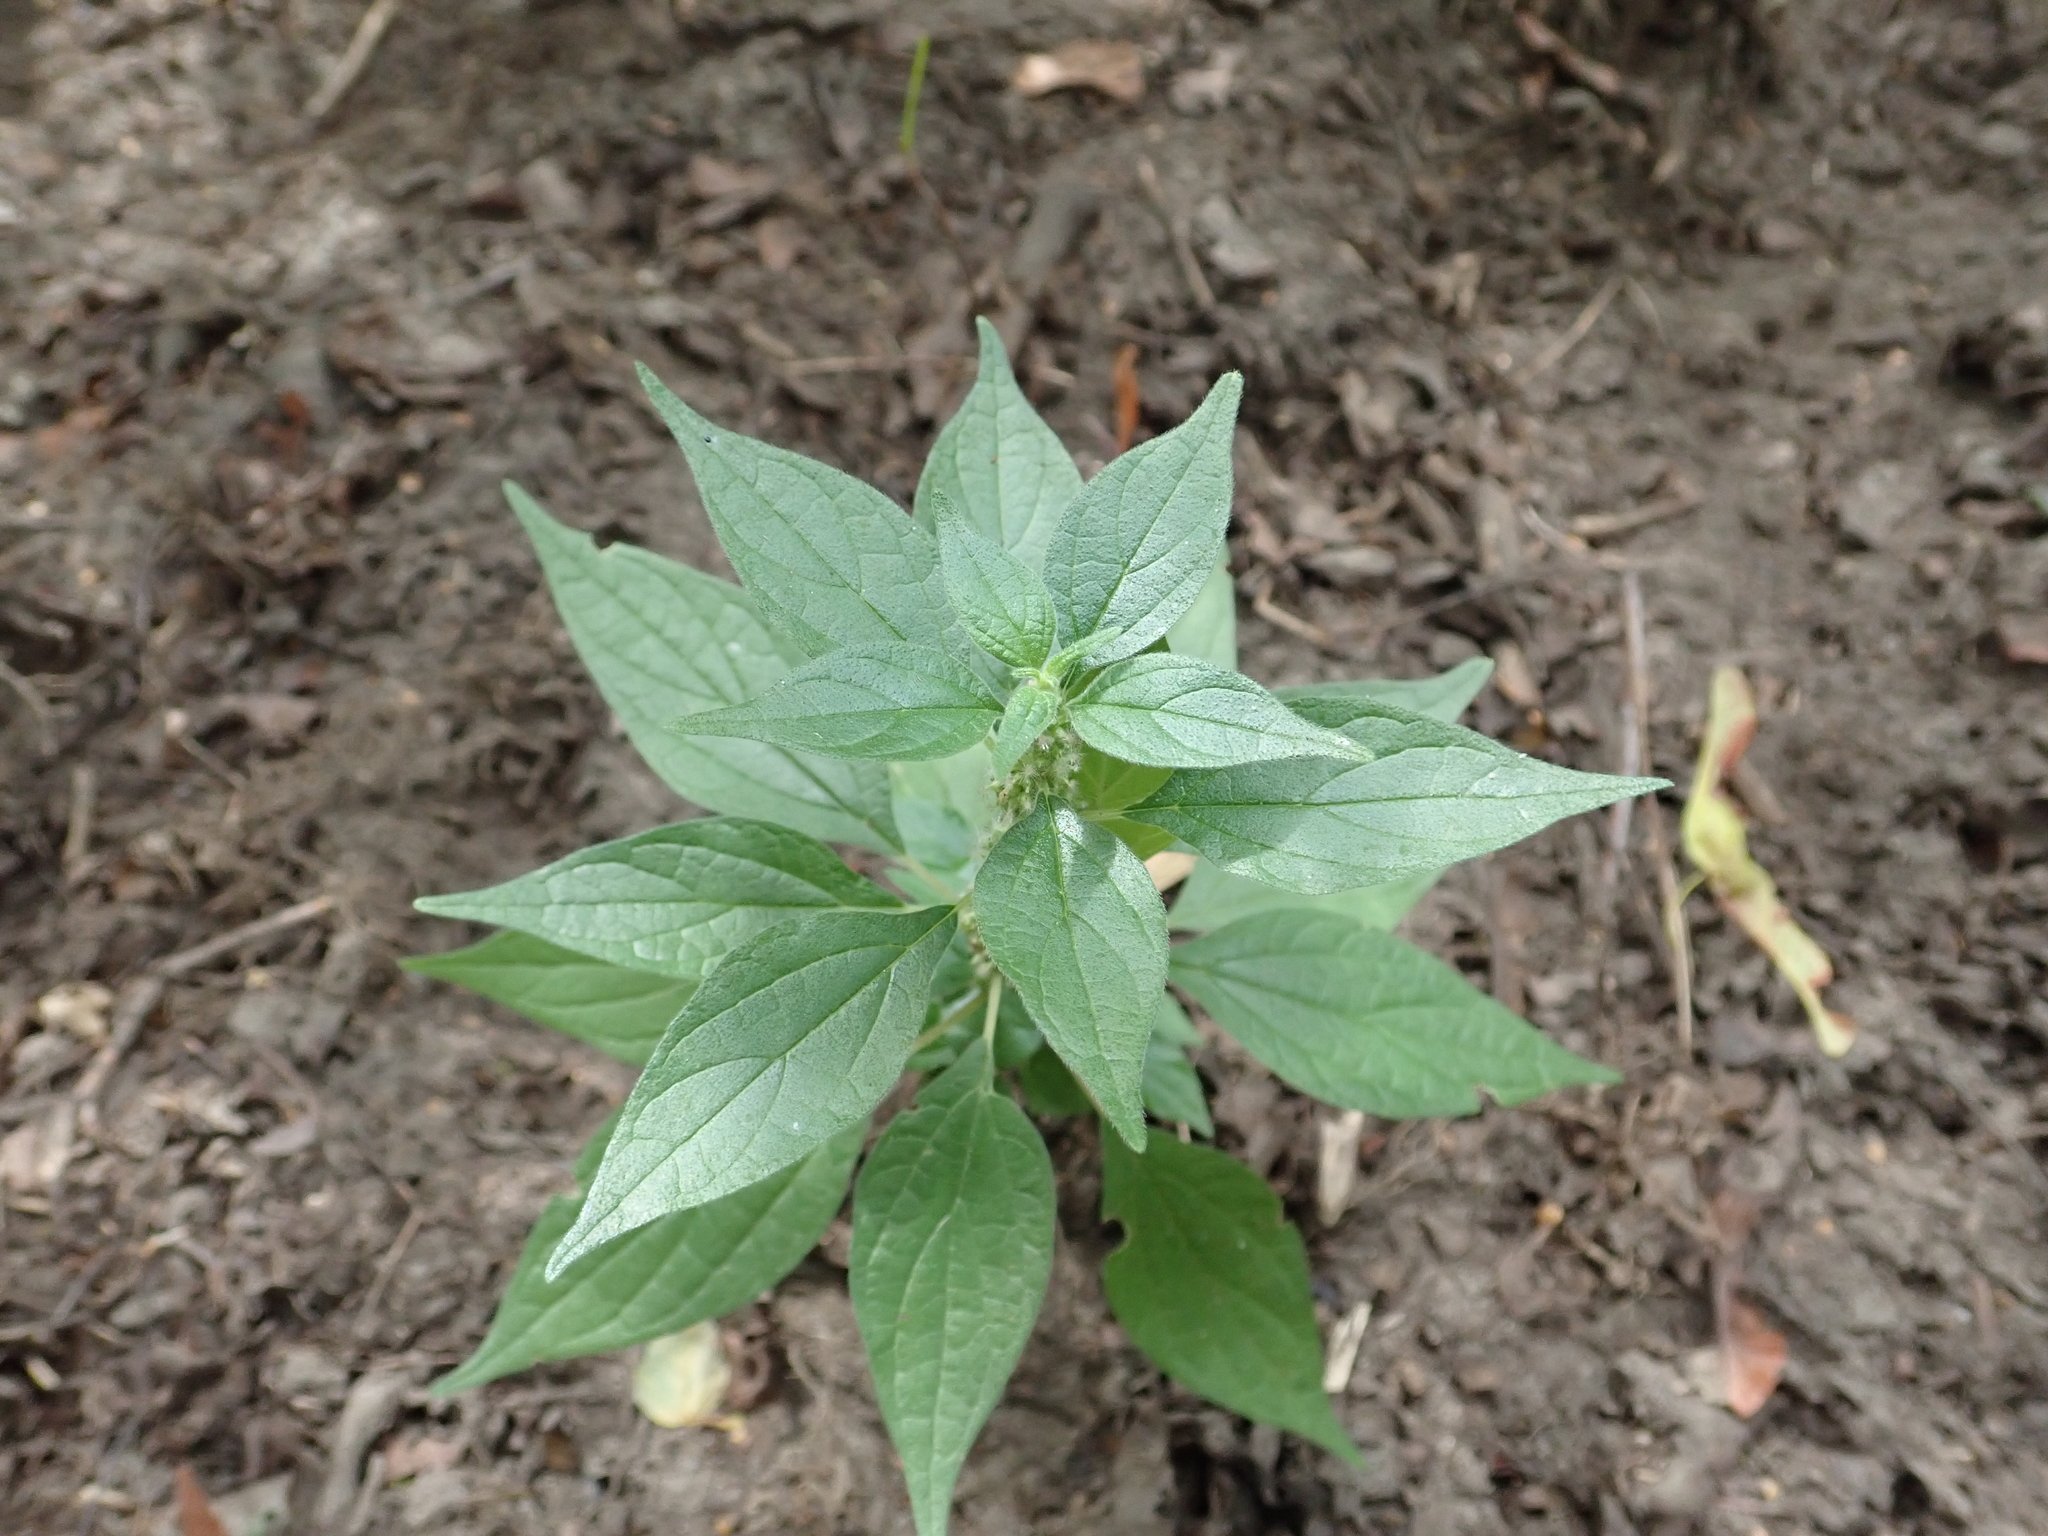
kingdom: Plantae
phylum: Tracheophyta
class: Magnoliopsida
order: Rosales
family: Urticaceae
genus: Parietaria
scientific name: Parietaria officinalis
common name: Eastern pellitory-of-the-wall
